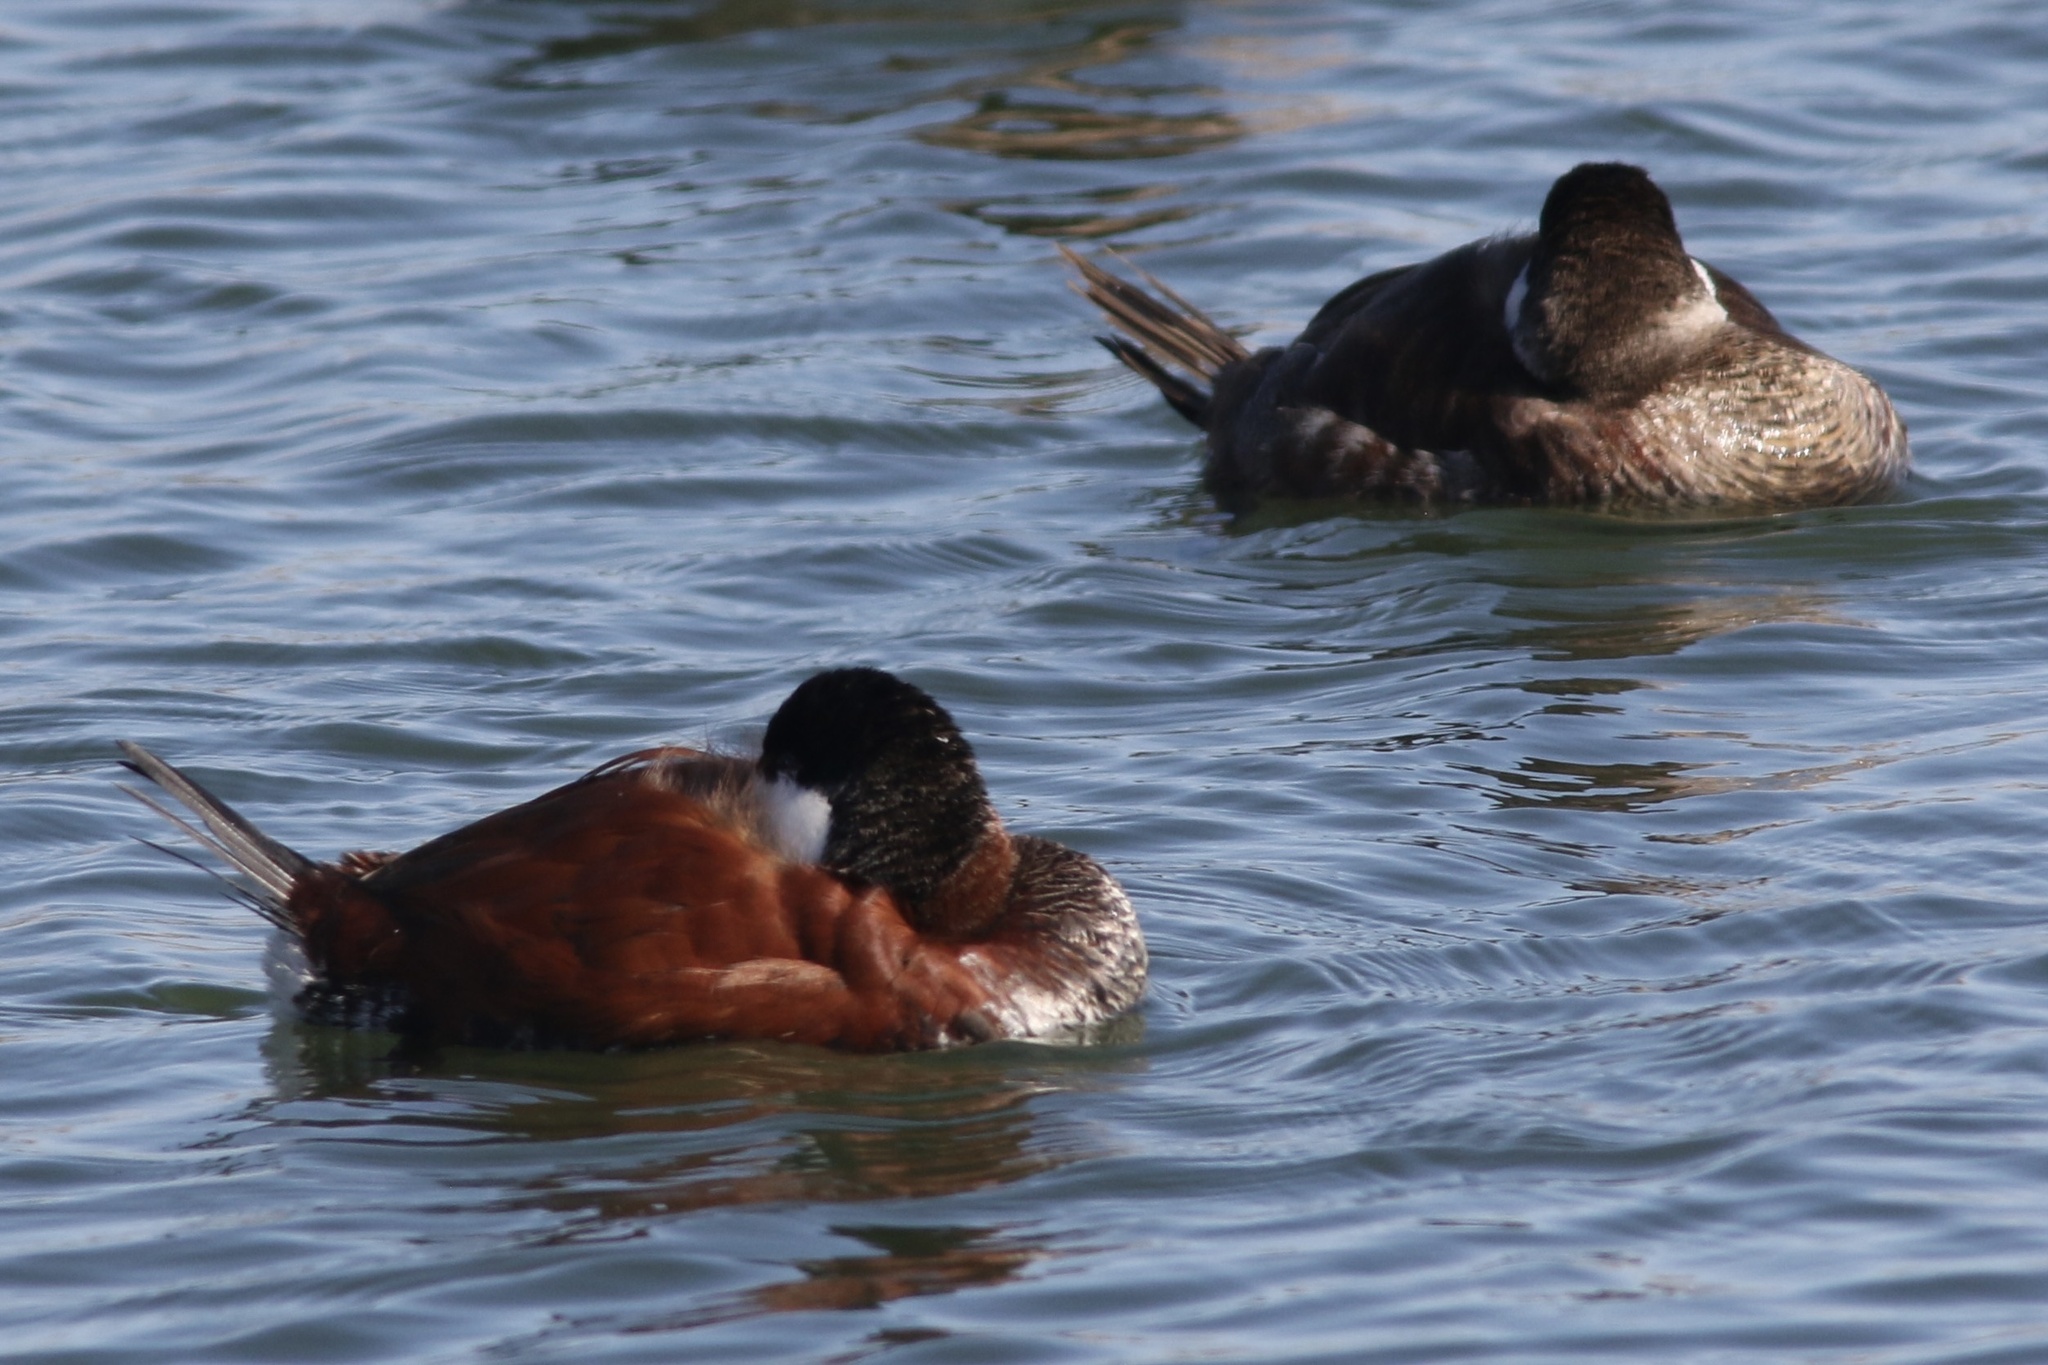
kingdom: Animalia
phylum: Chordata
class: Aves
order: Anseriformes
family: Anatidae
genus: Oxyura
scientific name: Oxyura jamaicensis
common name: Ruddy duck
